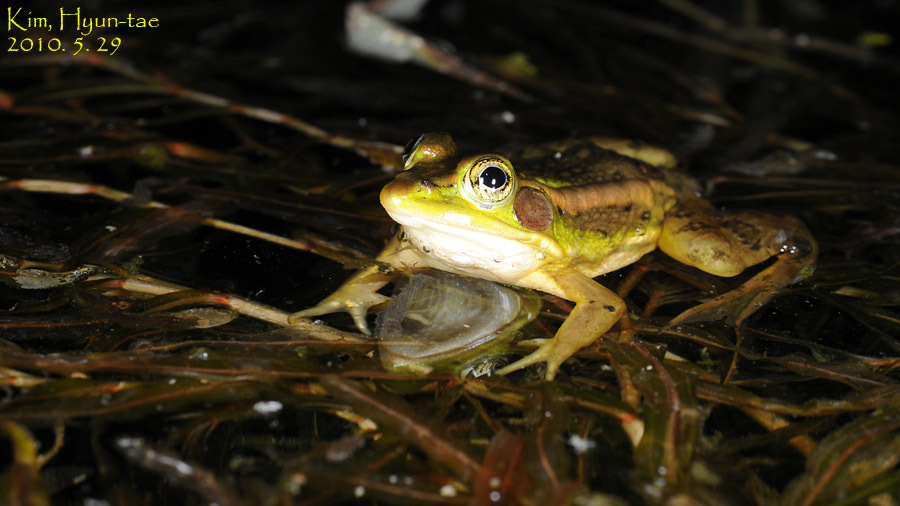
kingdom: Animalia
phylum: Chordata
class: Amphibia
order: Anura
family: Ranidae
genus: Pelophylax
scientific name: Pelophylax chosenicus
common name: Gold-spotted pond frog
